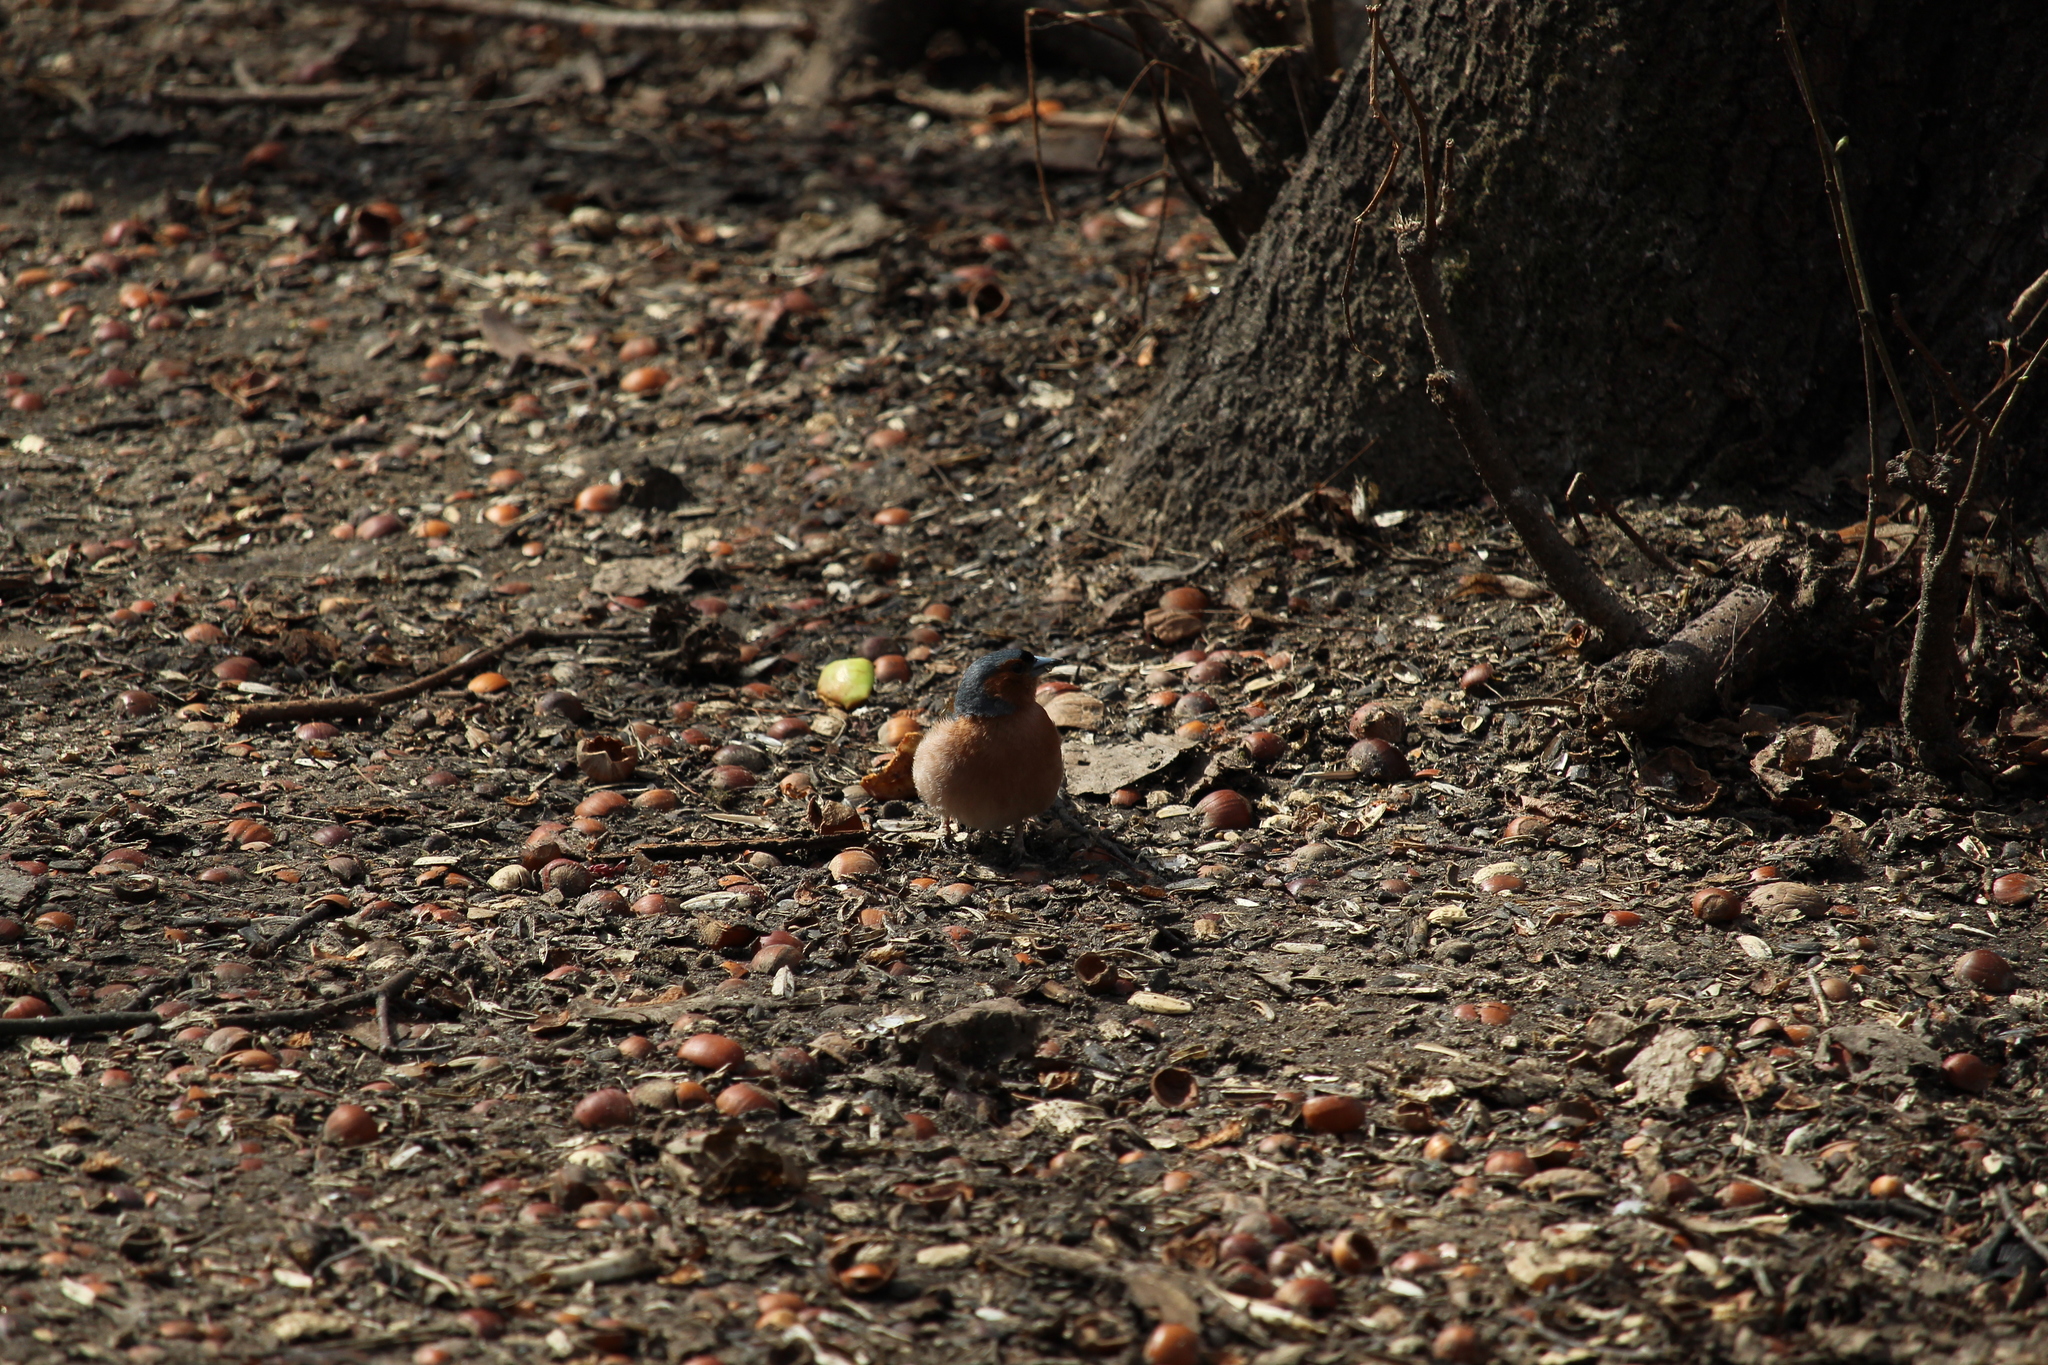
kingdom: Animalia
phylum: Chordata
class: Aves
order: Passeriformes
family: Fringillidae
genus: Fringilla
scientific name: Fringilla coelebs
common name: Common chaffinch
